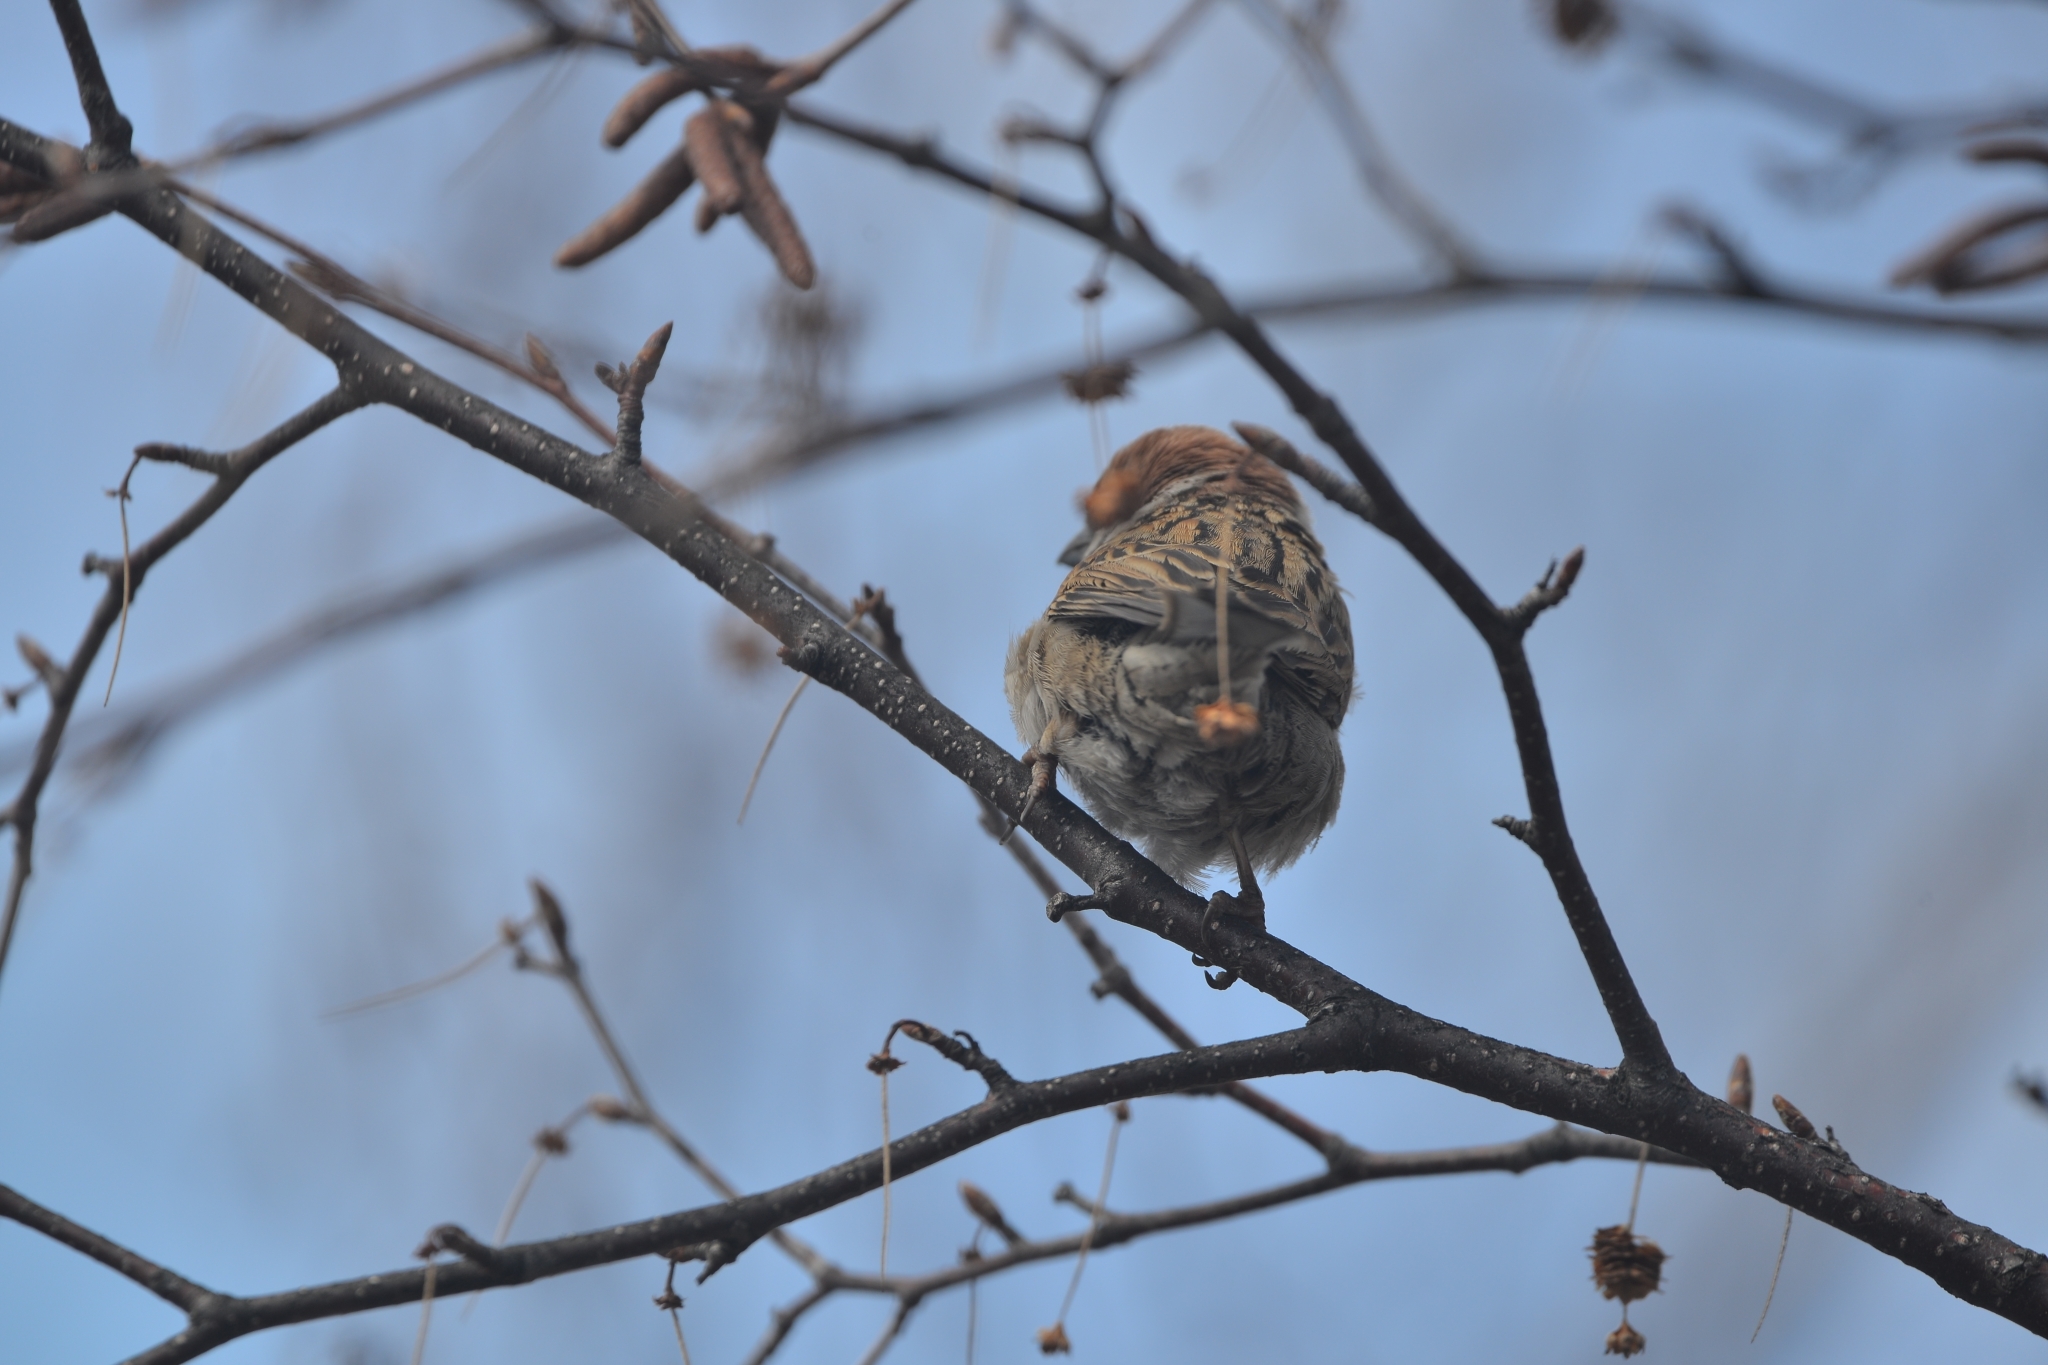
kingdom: Animalia
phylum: Chordata
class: Aves
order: Passeriformes
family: Passeridae
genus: Passer
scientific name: Passer montanus
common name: Eurasian tree sparrow
